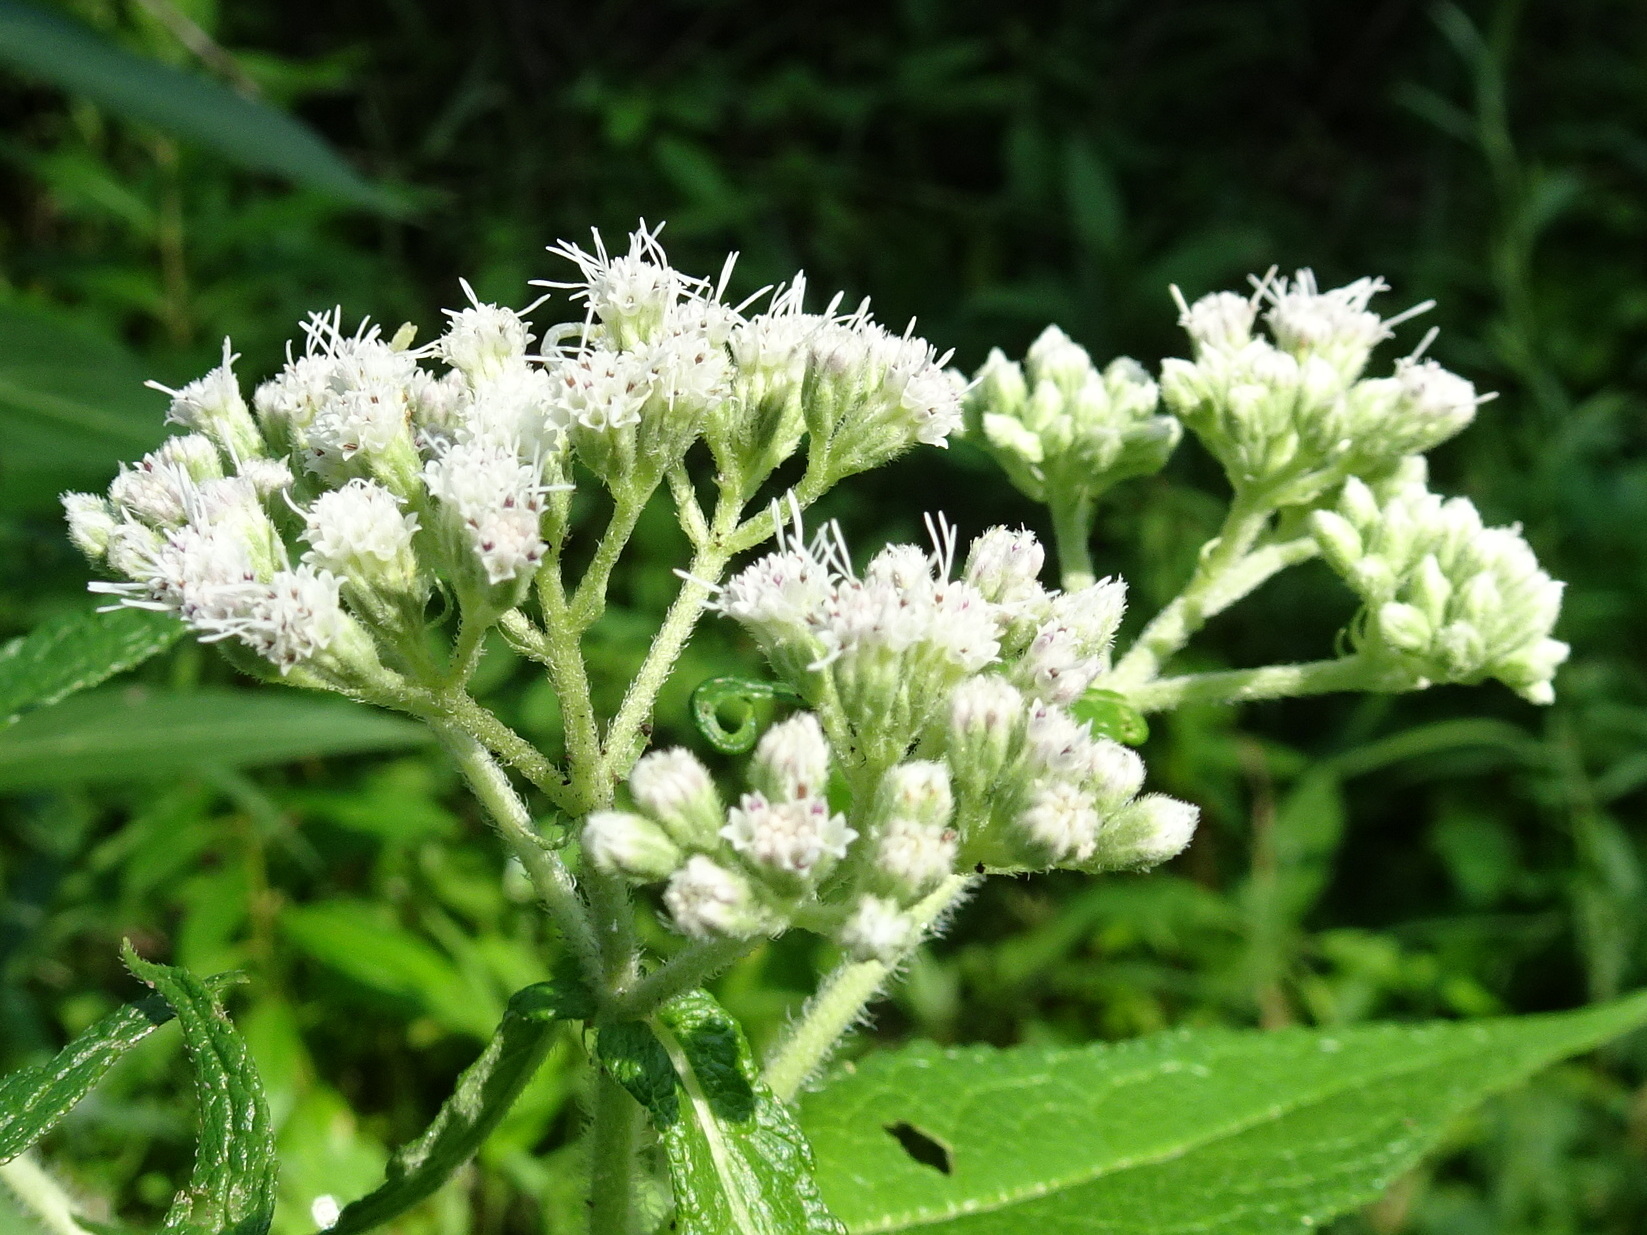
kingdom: Plantae
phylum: Tracheophyta
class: Magnoliopsida
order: Asterales
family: Asteraceae
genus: Eupatorium
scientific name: Eupatorium perfoliatum
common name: Boneset
